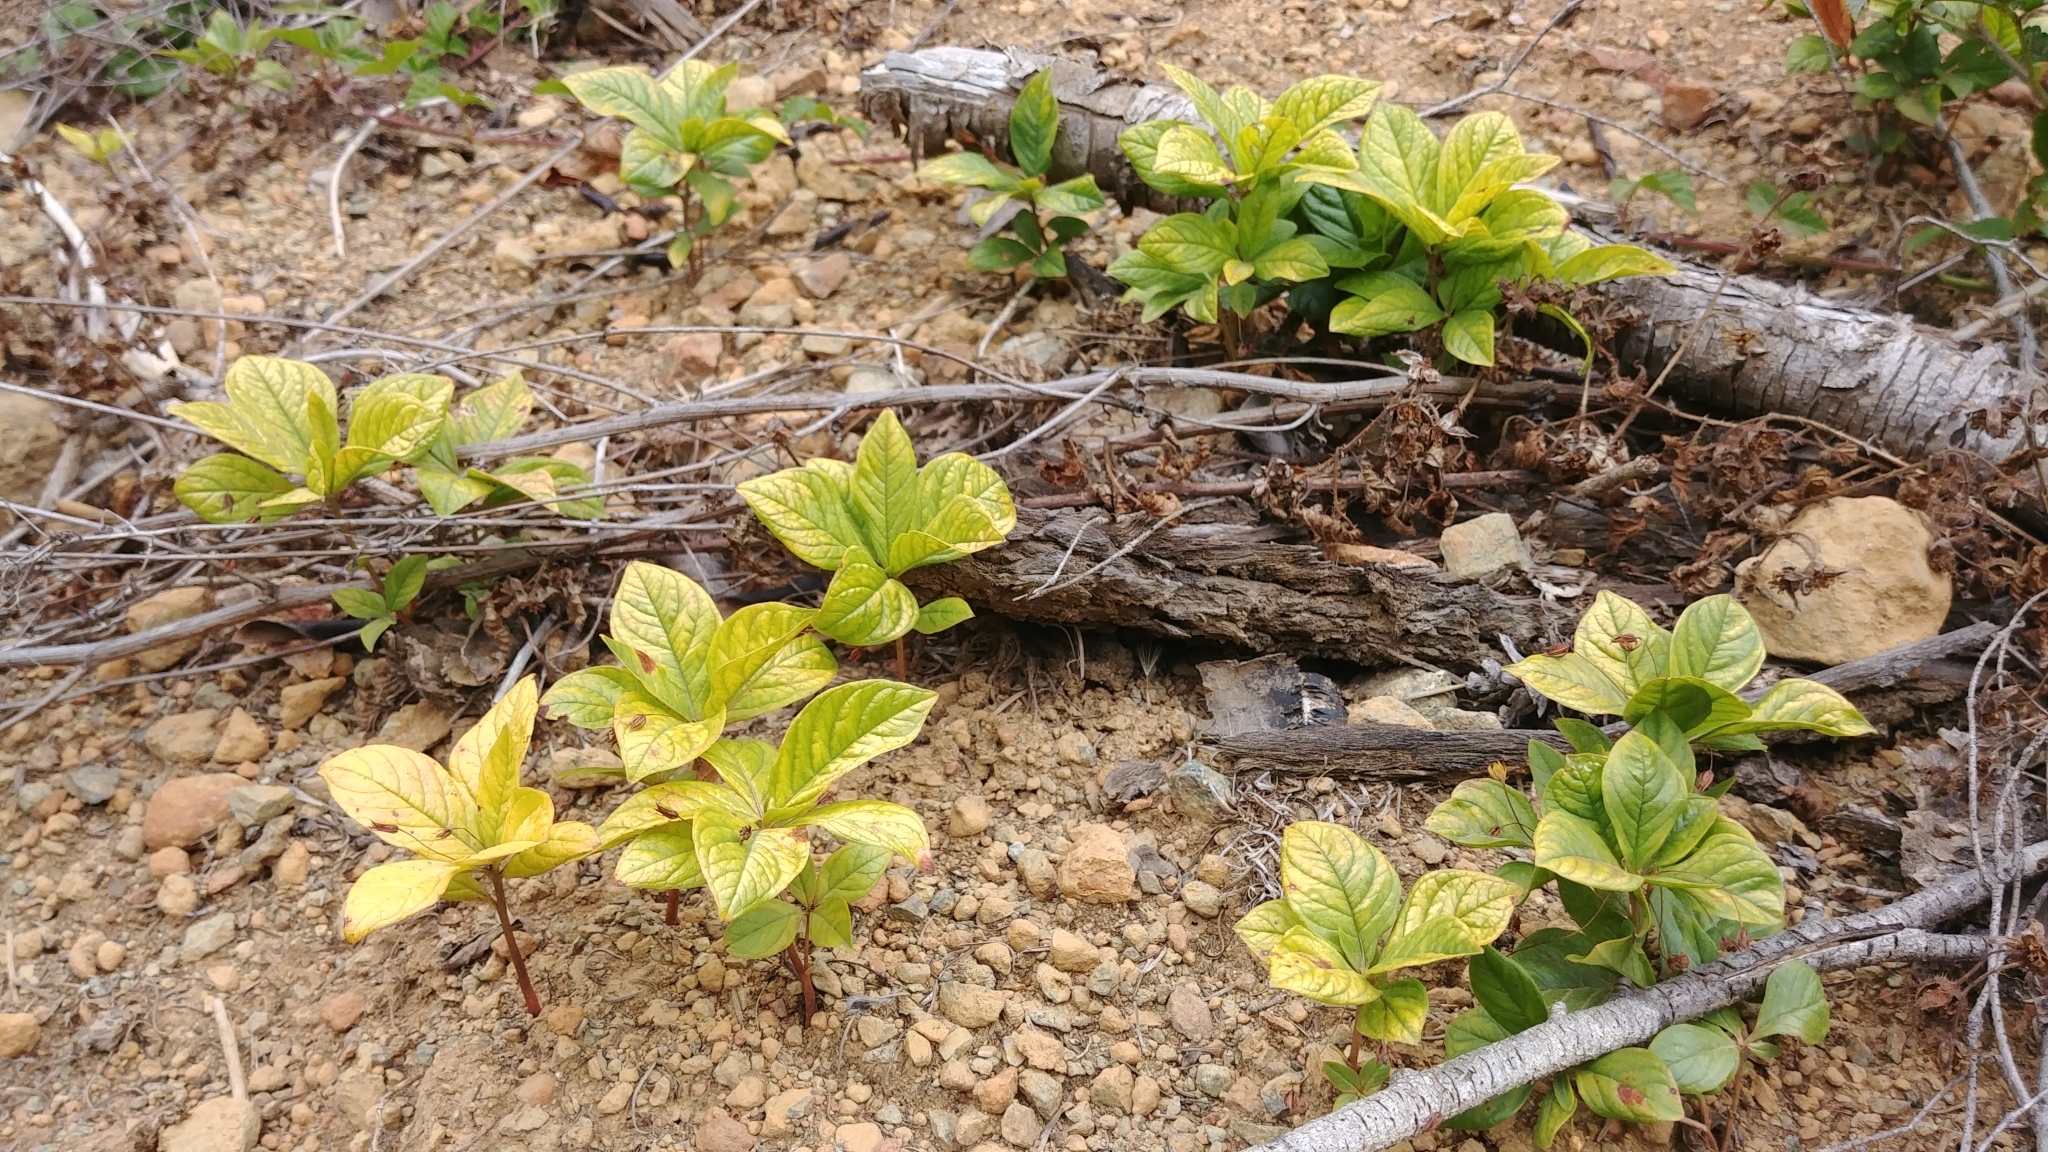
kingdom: Plantae
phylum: Tracheophyta
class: Magnoliopsida
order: Ericales
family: Primulaceae
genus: Lysimachia
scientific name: Lysimachia latifolia
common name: Pacific starflower
